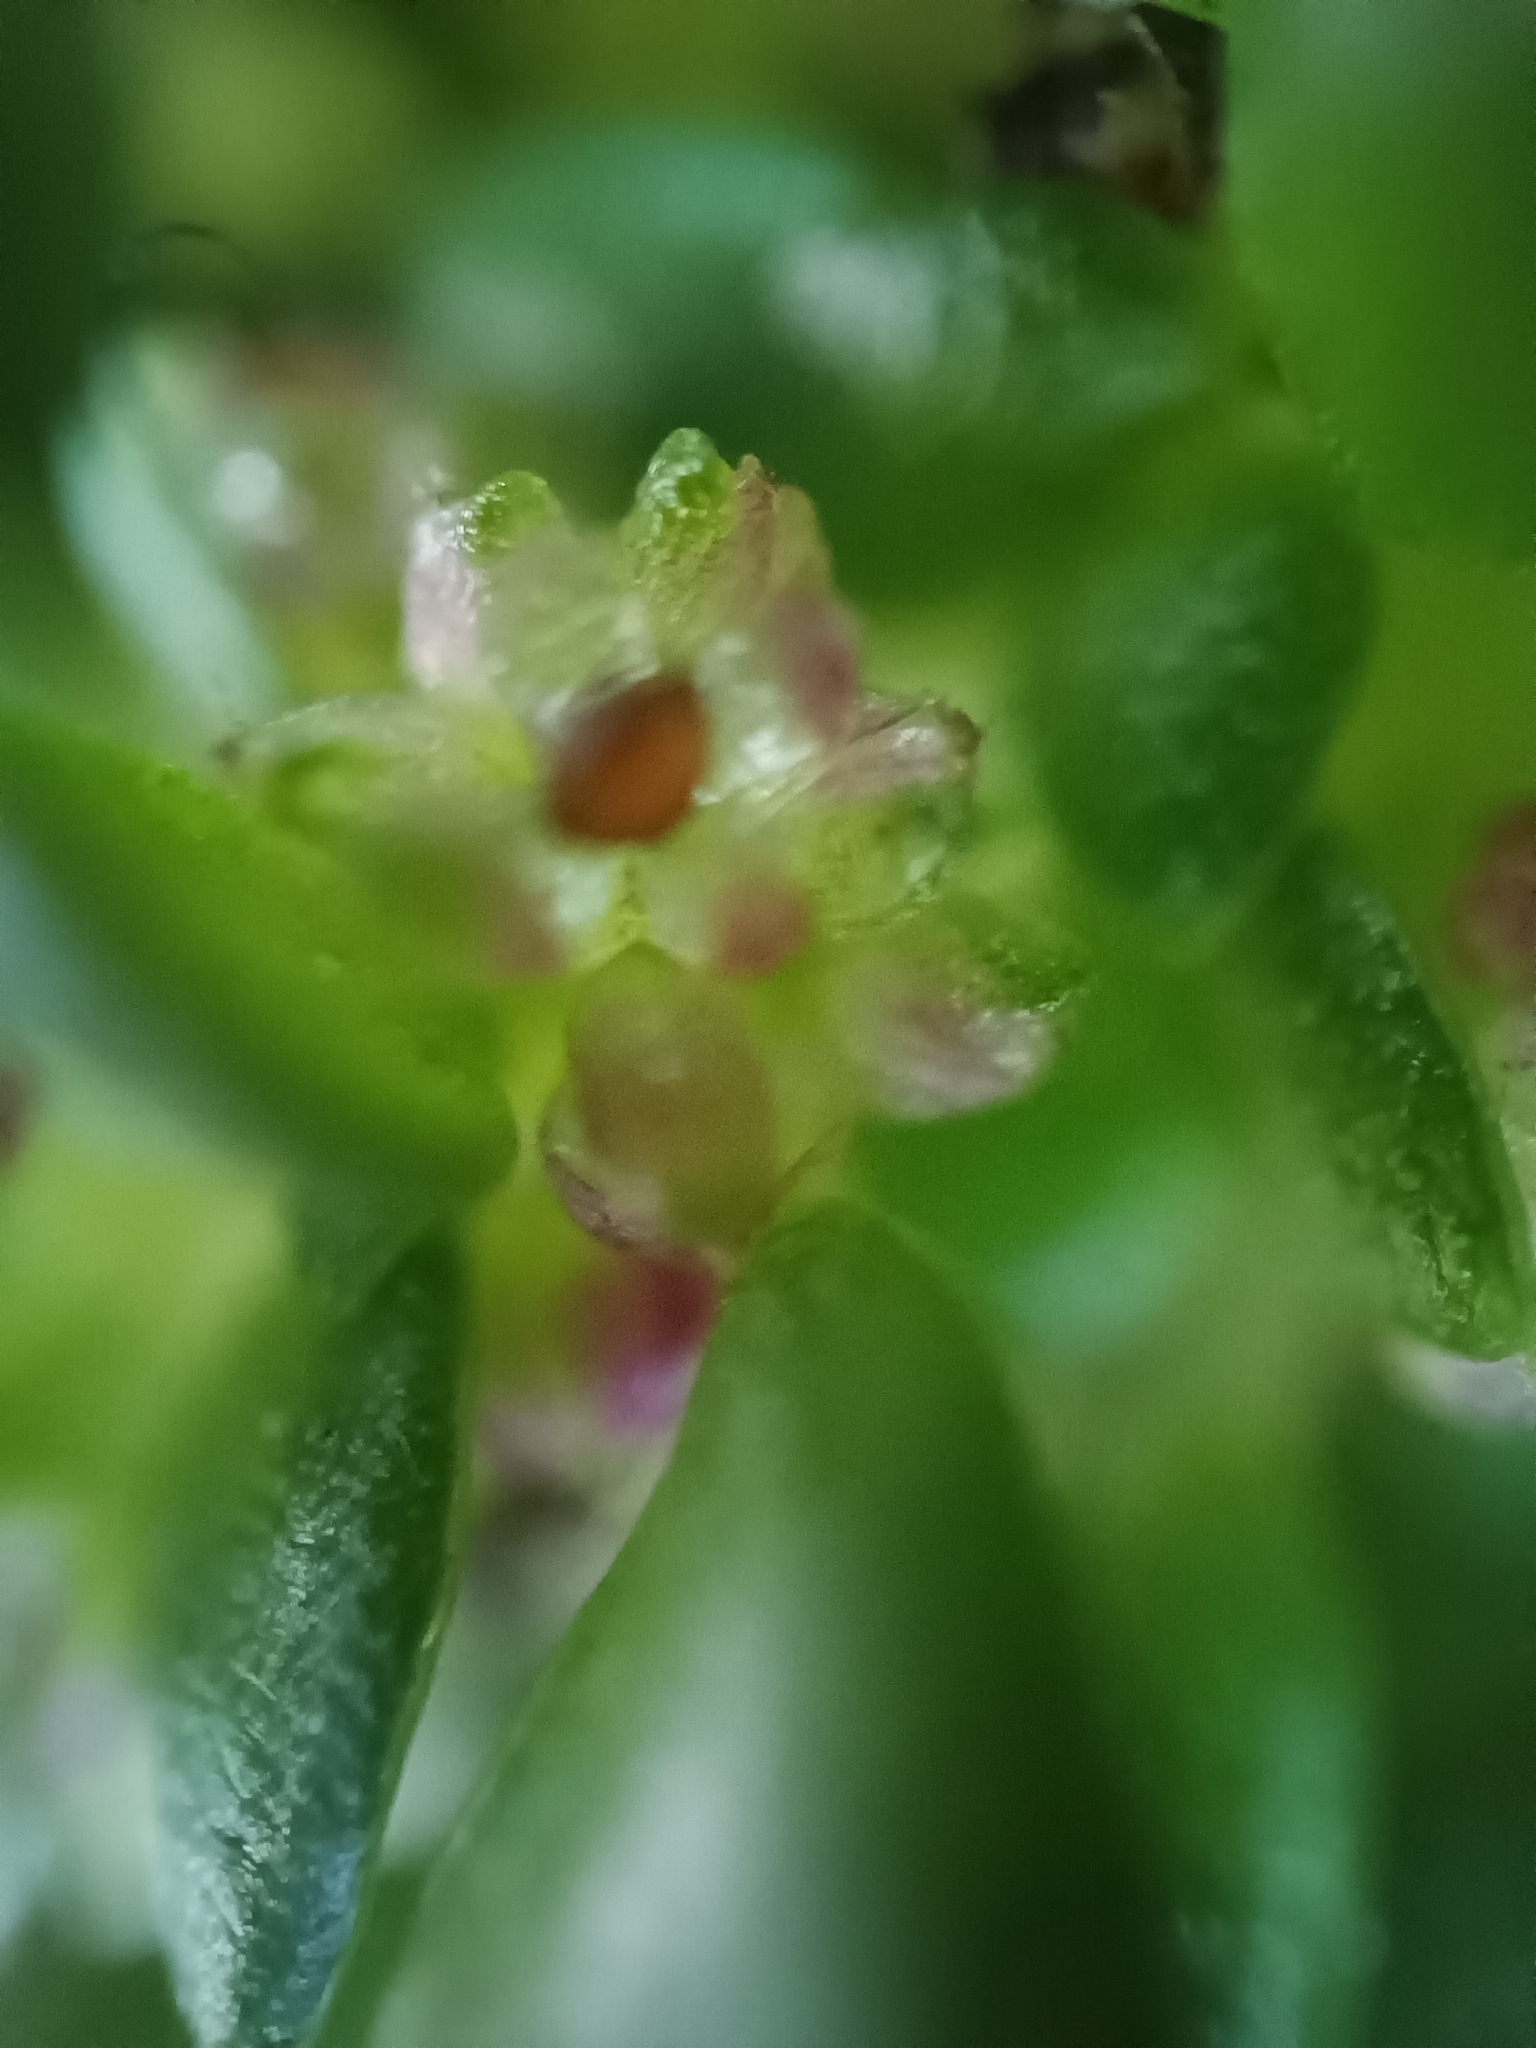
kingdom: Plantae
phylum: Tracheophyta
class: Magnoliopsida
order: Rosales
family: Urticaceae
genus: Pilea
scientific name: Pilea microphylla
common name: Artillery-plant
